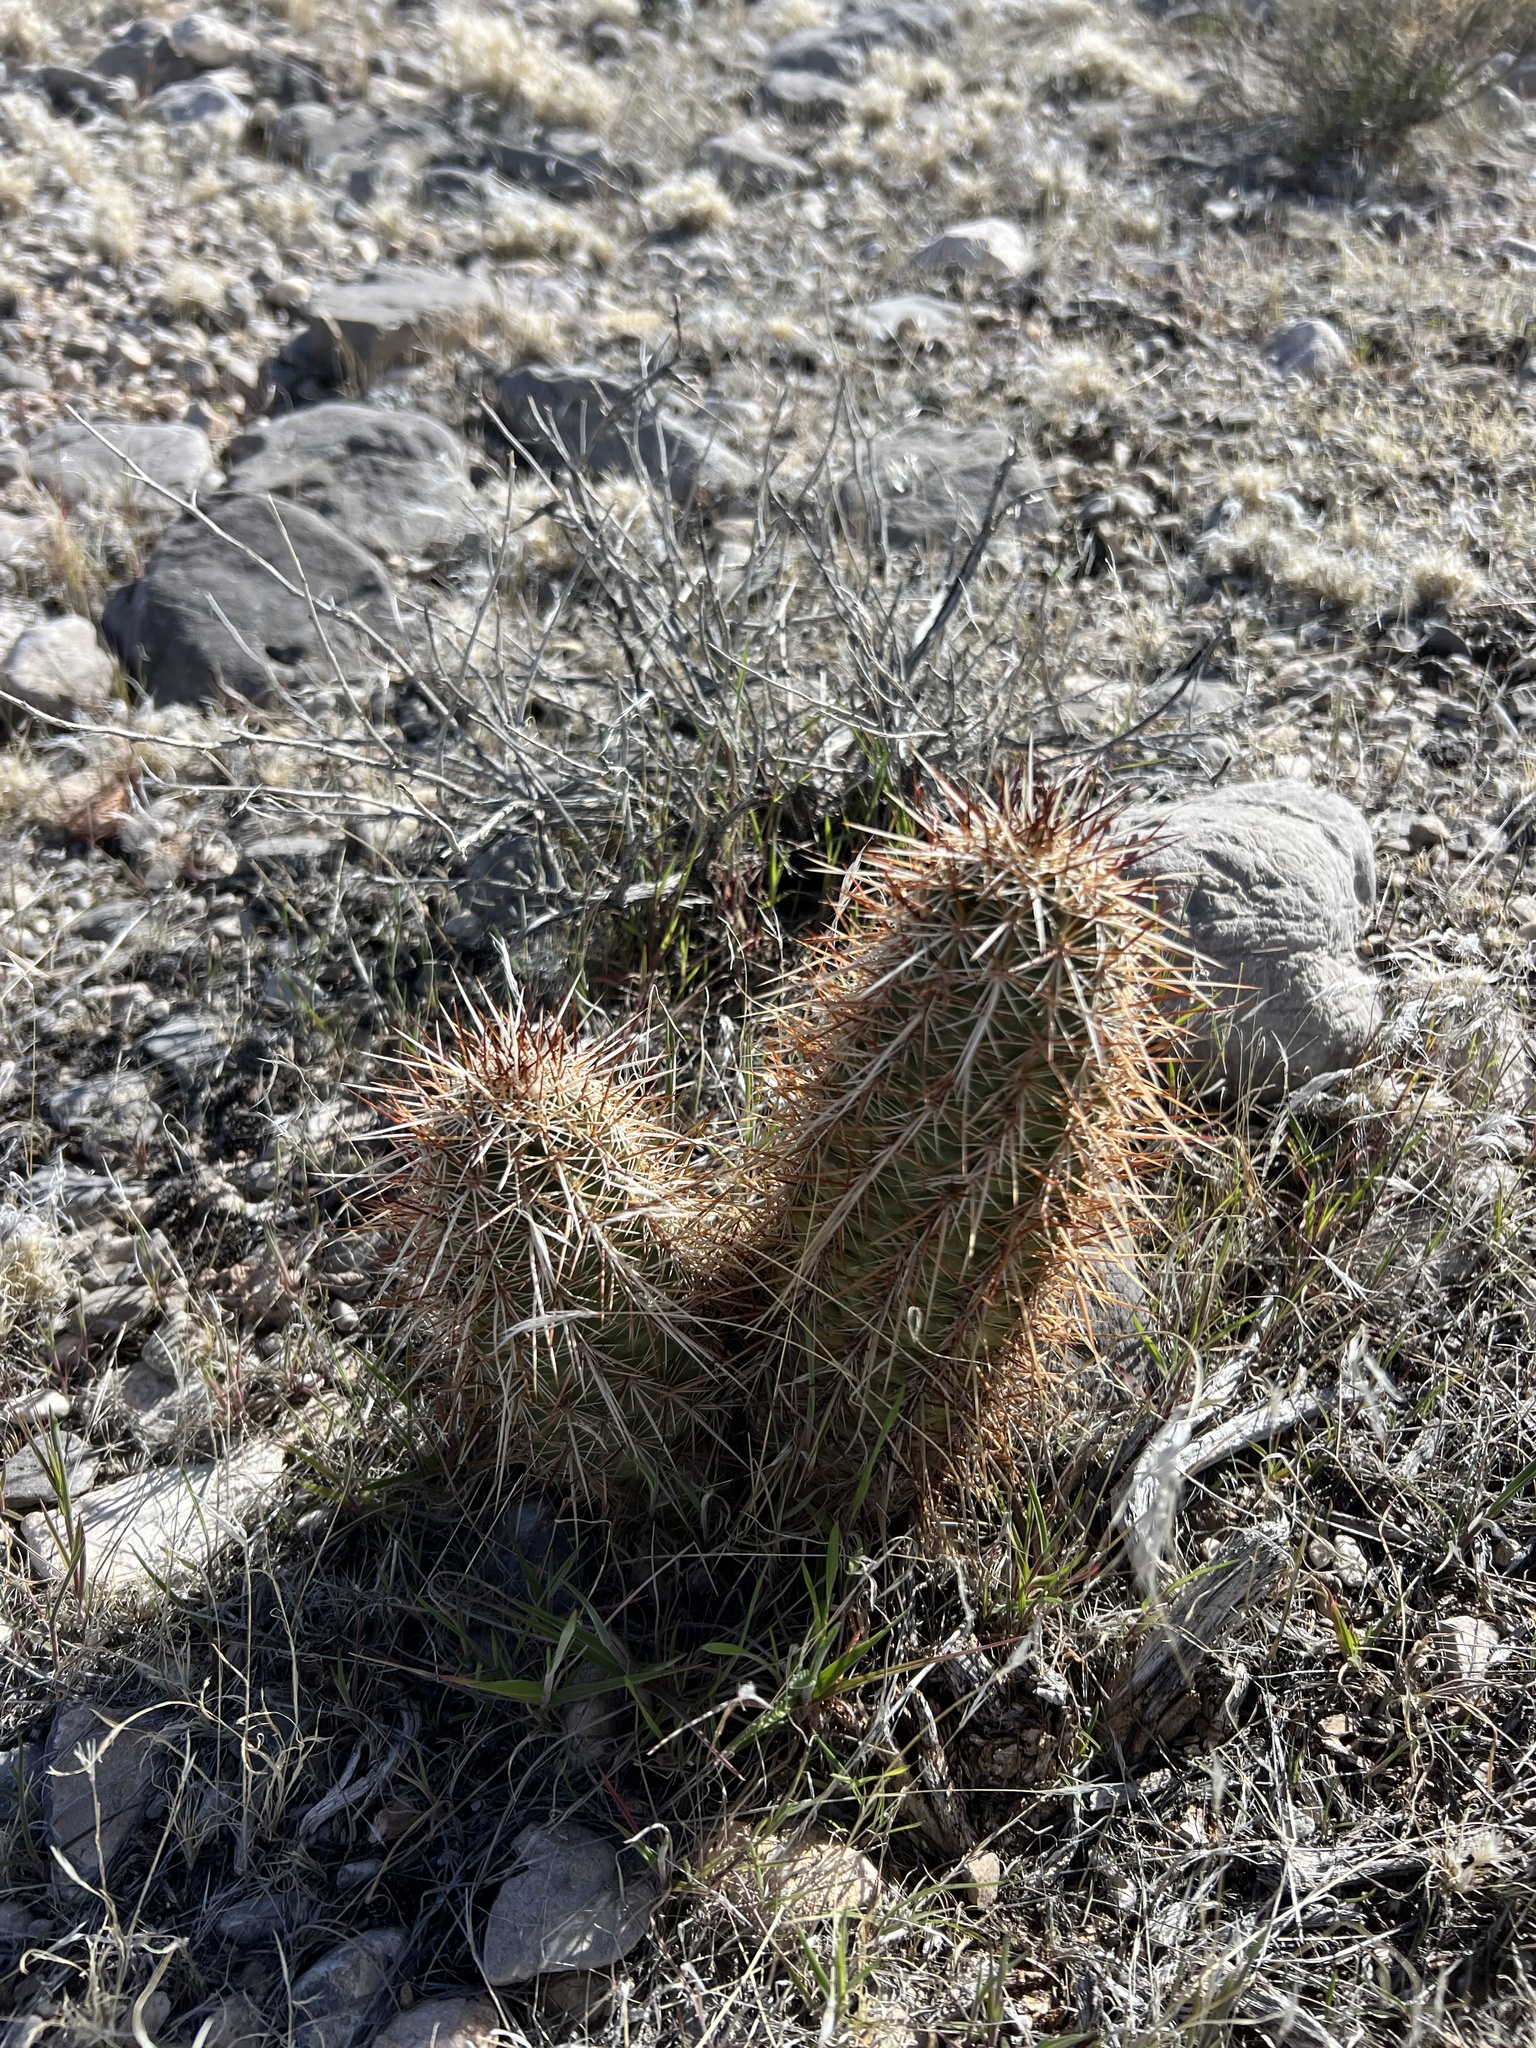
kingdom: Plantae
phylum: Tracheophyta
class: Magnoliopsida
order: Caryophyllales
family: Cactaceae
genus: Echinocereus
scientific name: Echinocereus engelmannii
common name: Engelmann's hedgehog cactus
